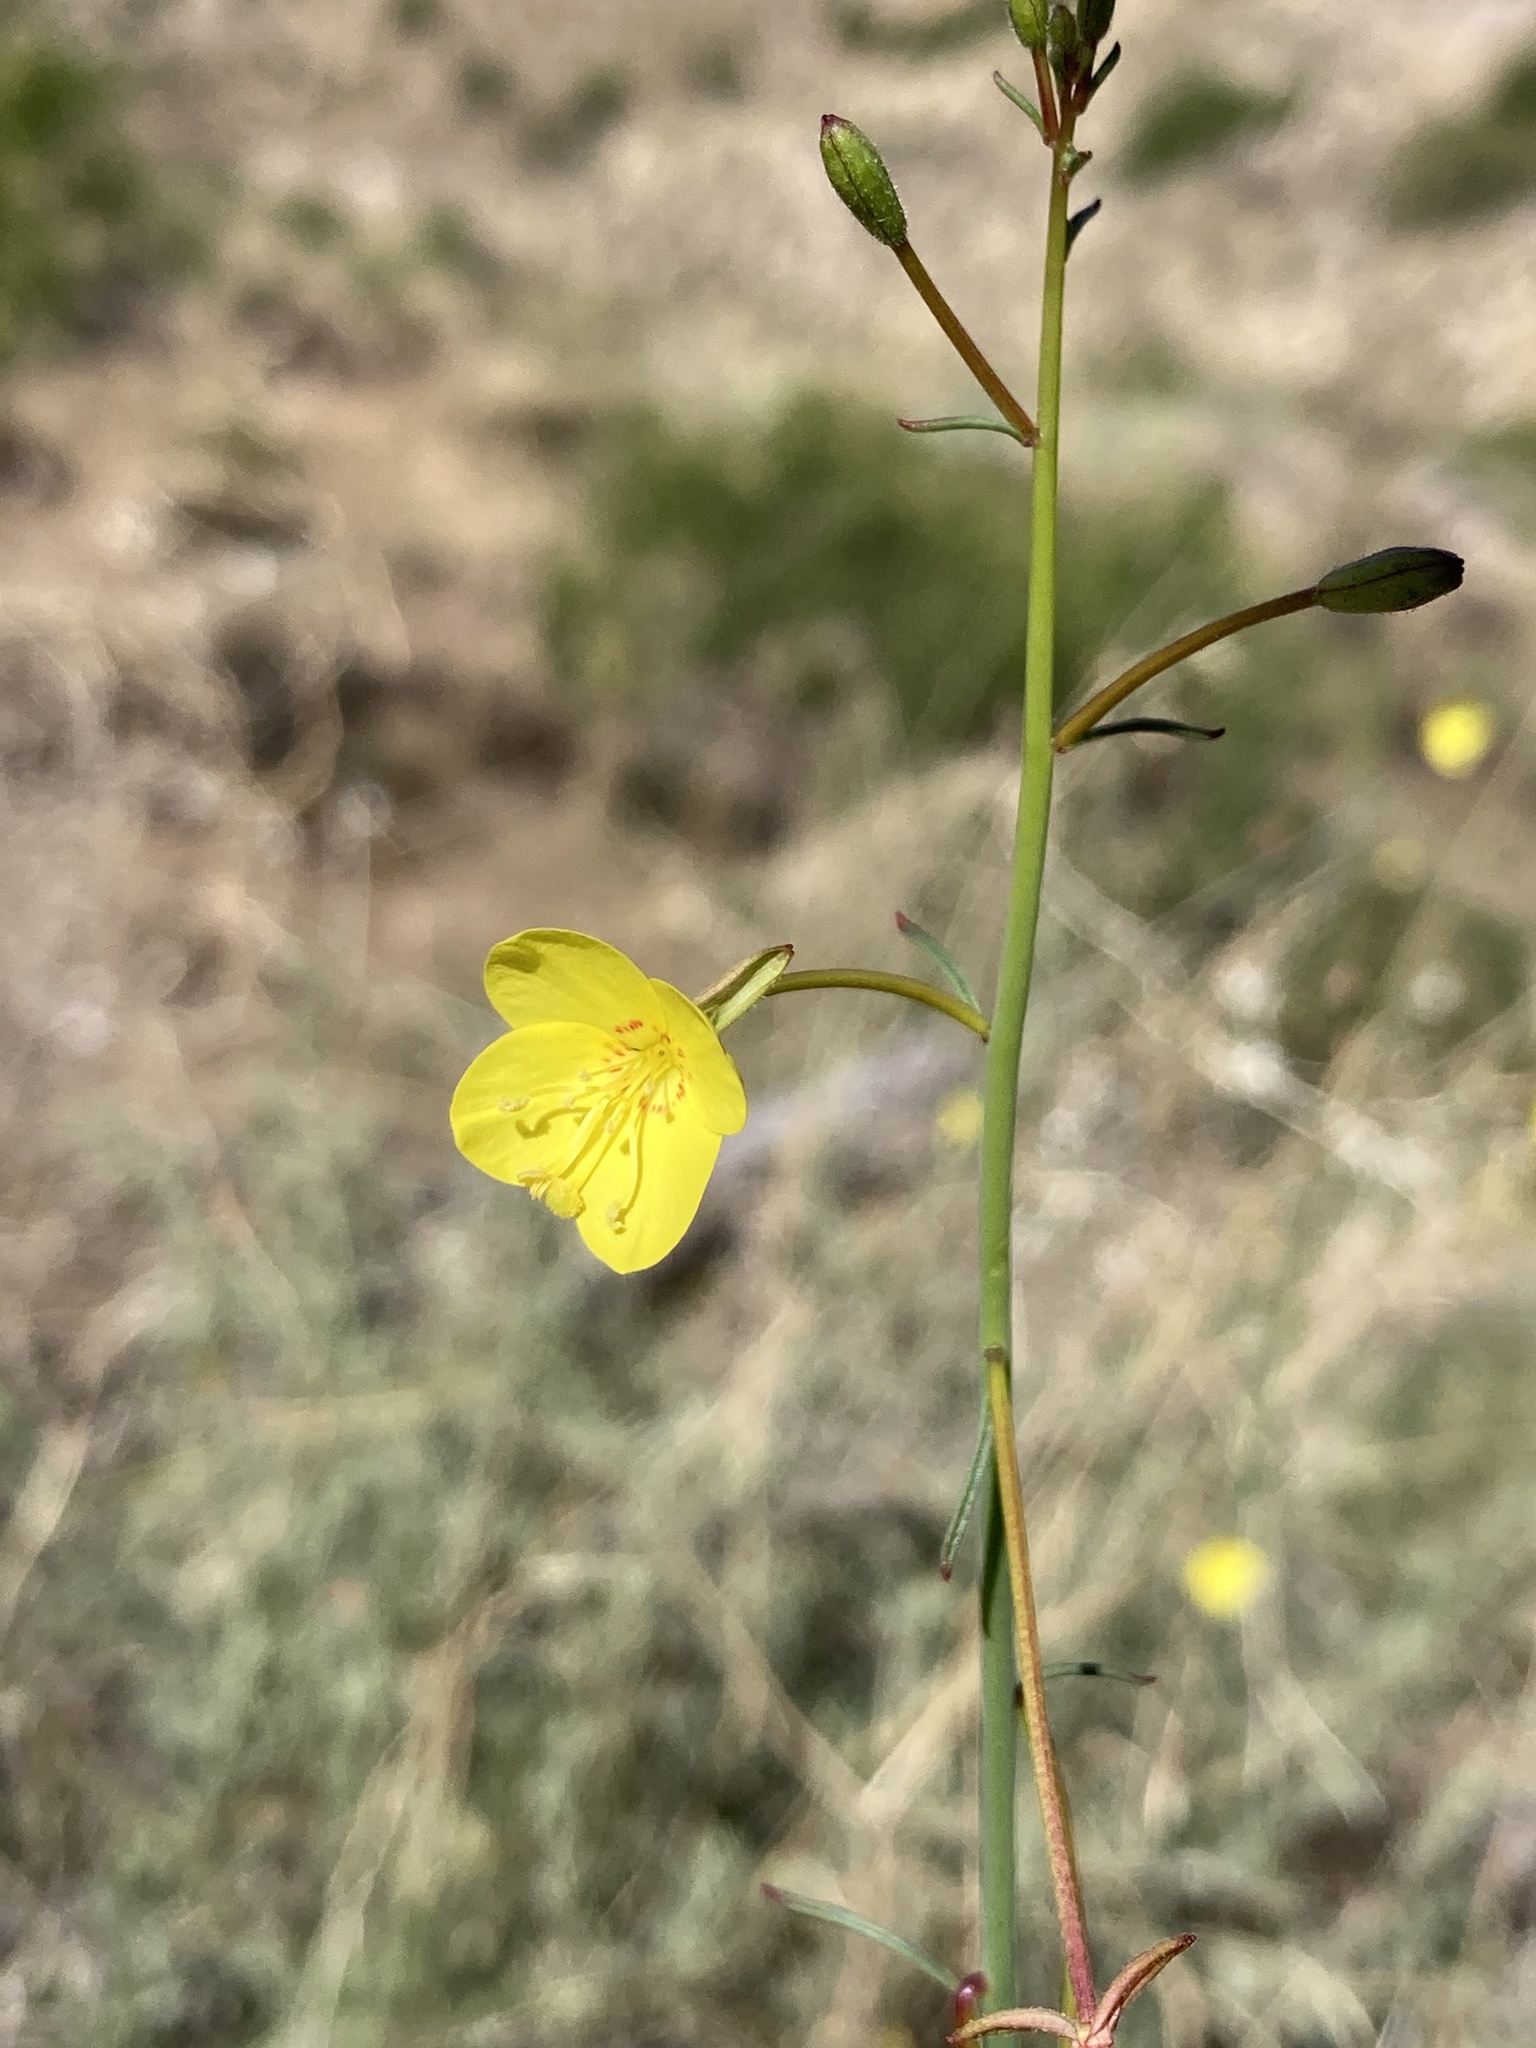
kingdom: Plantae
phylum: Tracheophyta
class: Magnoliopsida
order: Myrtales
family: Onagraceae
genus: Eulobus
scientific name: Eulobus californicus
